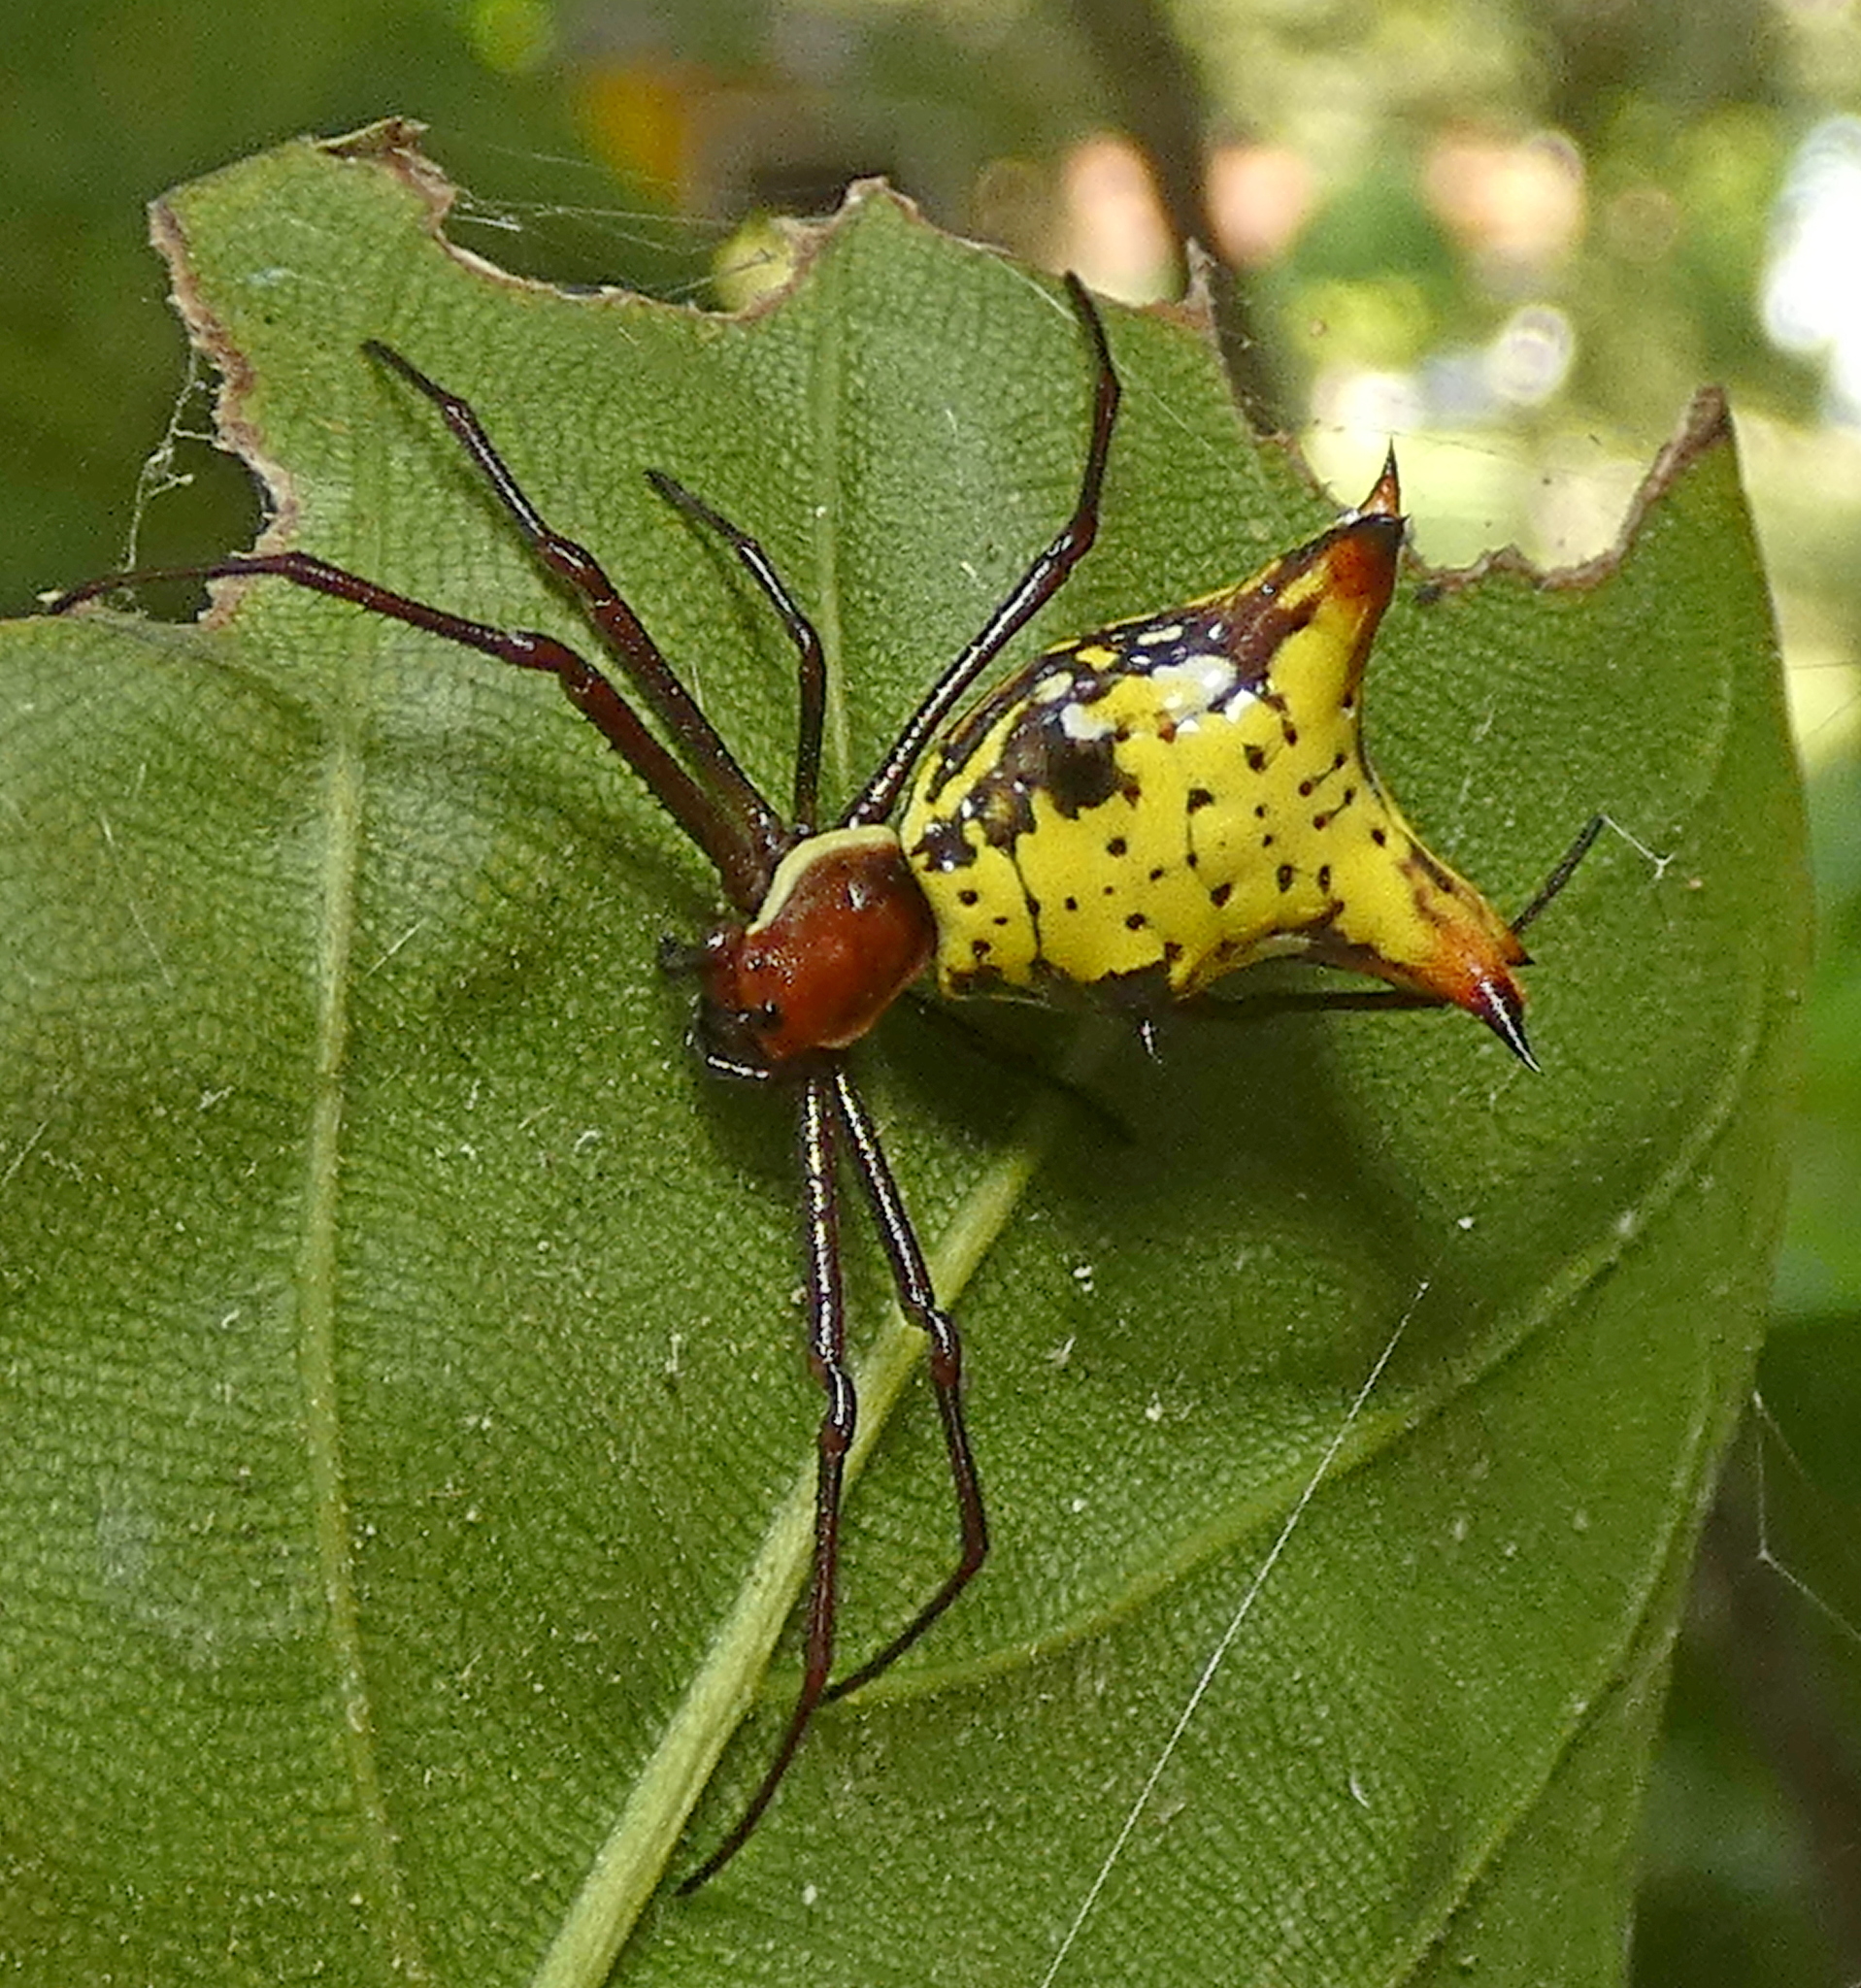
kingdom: Animalia
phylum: Arthropoda
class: Arachnida
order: Araneae
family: Araneidae
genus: Micrathena
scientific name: Micrathena fissispina
